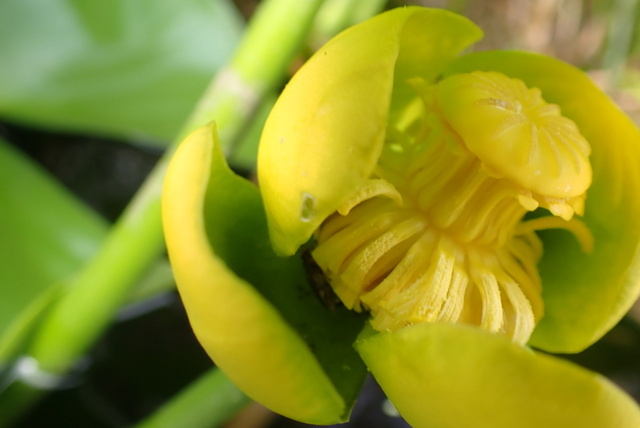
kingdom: Plantae
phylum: Tracheophyta
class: Magnoliopsida
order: Nymphaeales
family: Nymphaeaceae
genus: Nuphar
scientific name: Nuphar advena
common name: Spatter-dock
